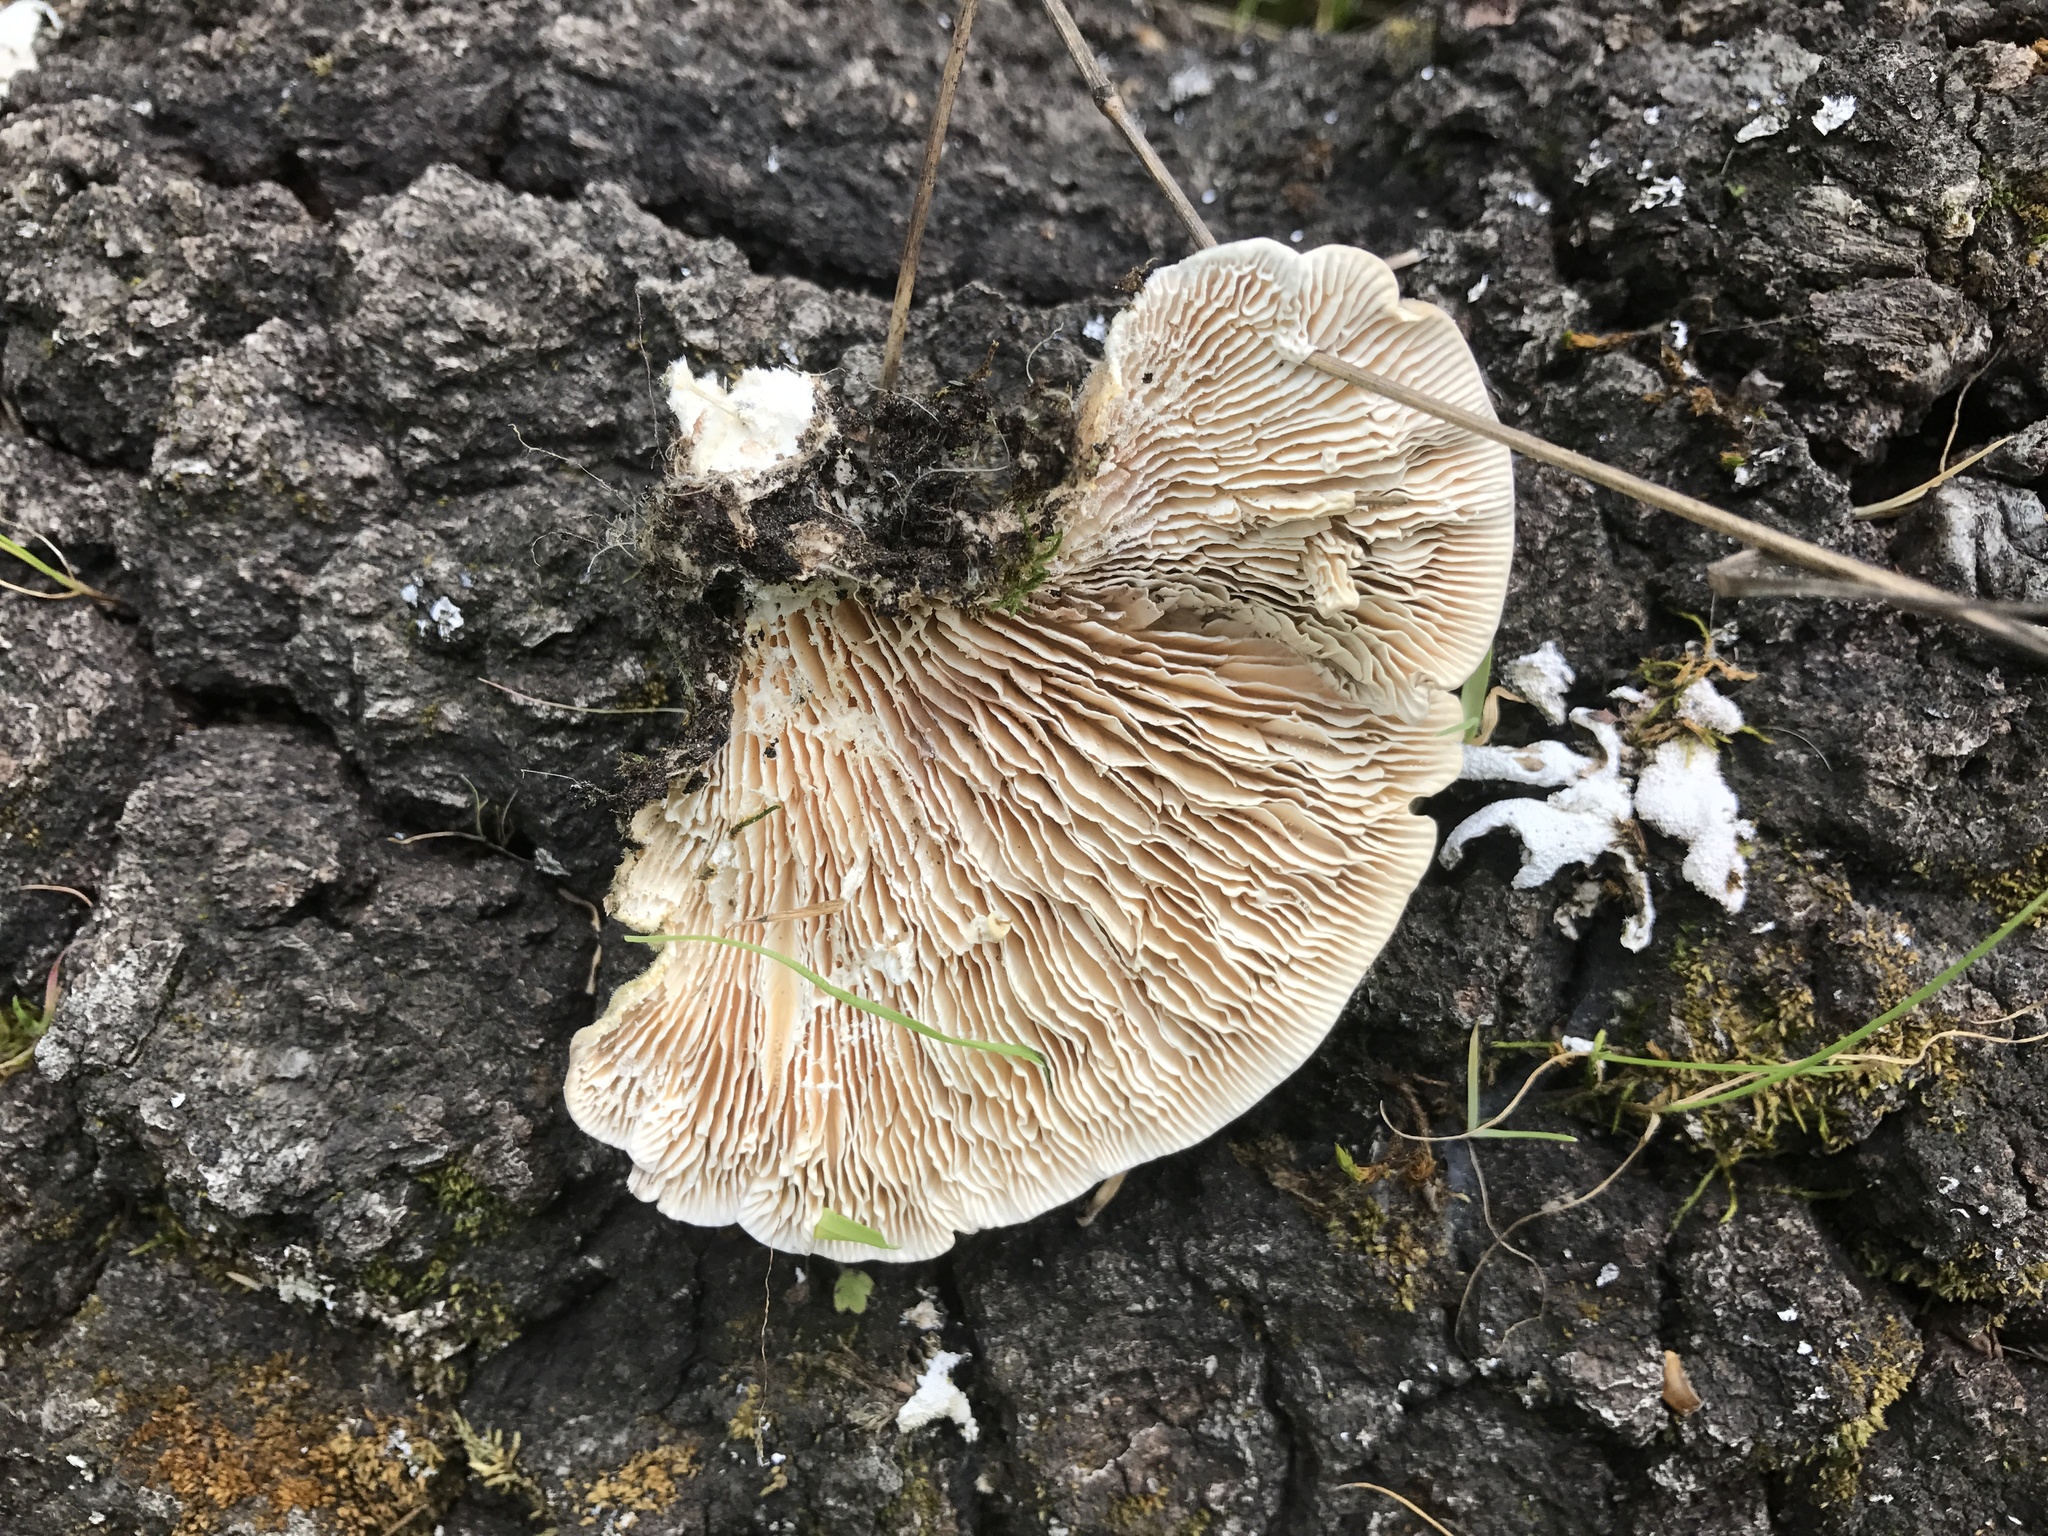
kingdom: Fungi
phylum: Basidiomycota
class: Agaricomycetes
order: Polyporales
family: Polyporaceae
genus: Lenzites
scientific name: Lenzites betulinus
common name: Birch mazegill
